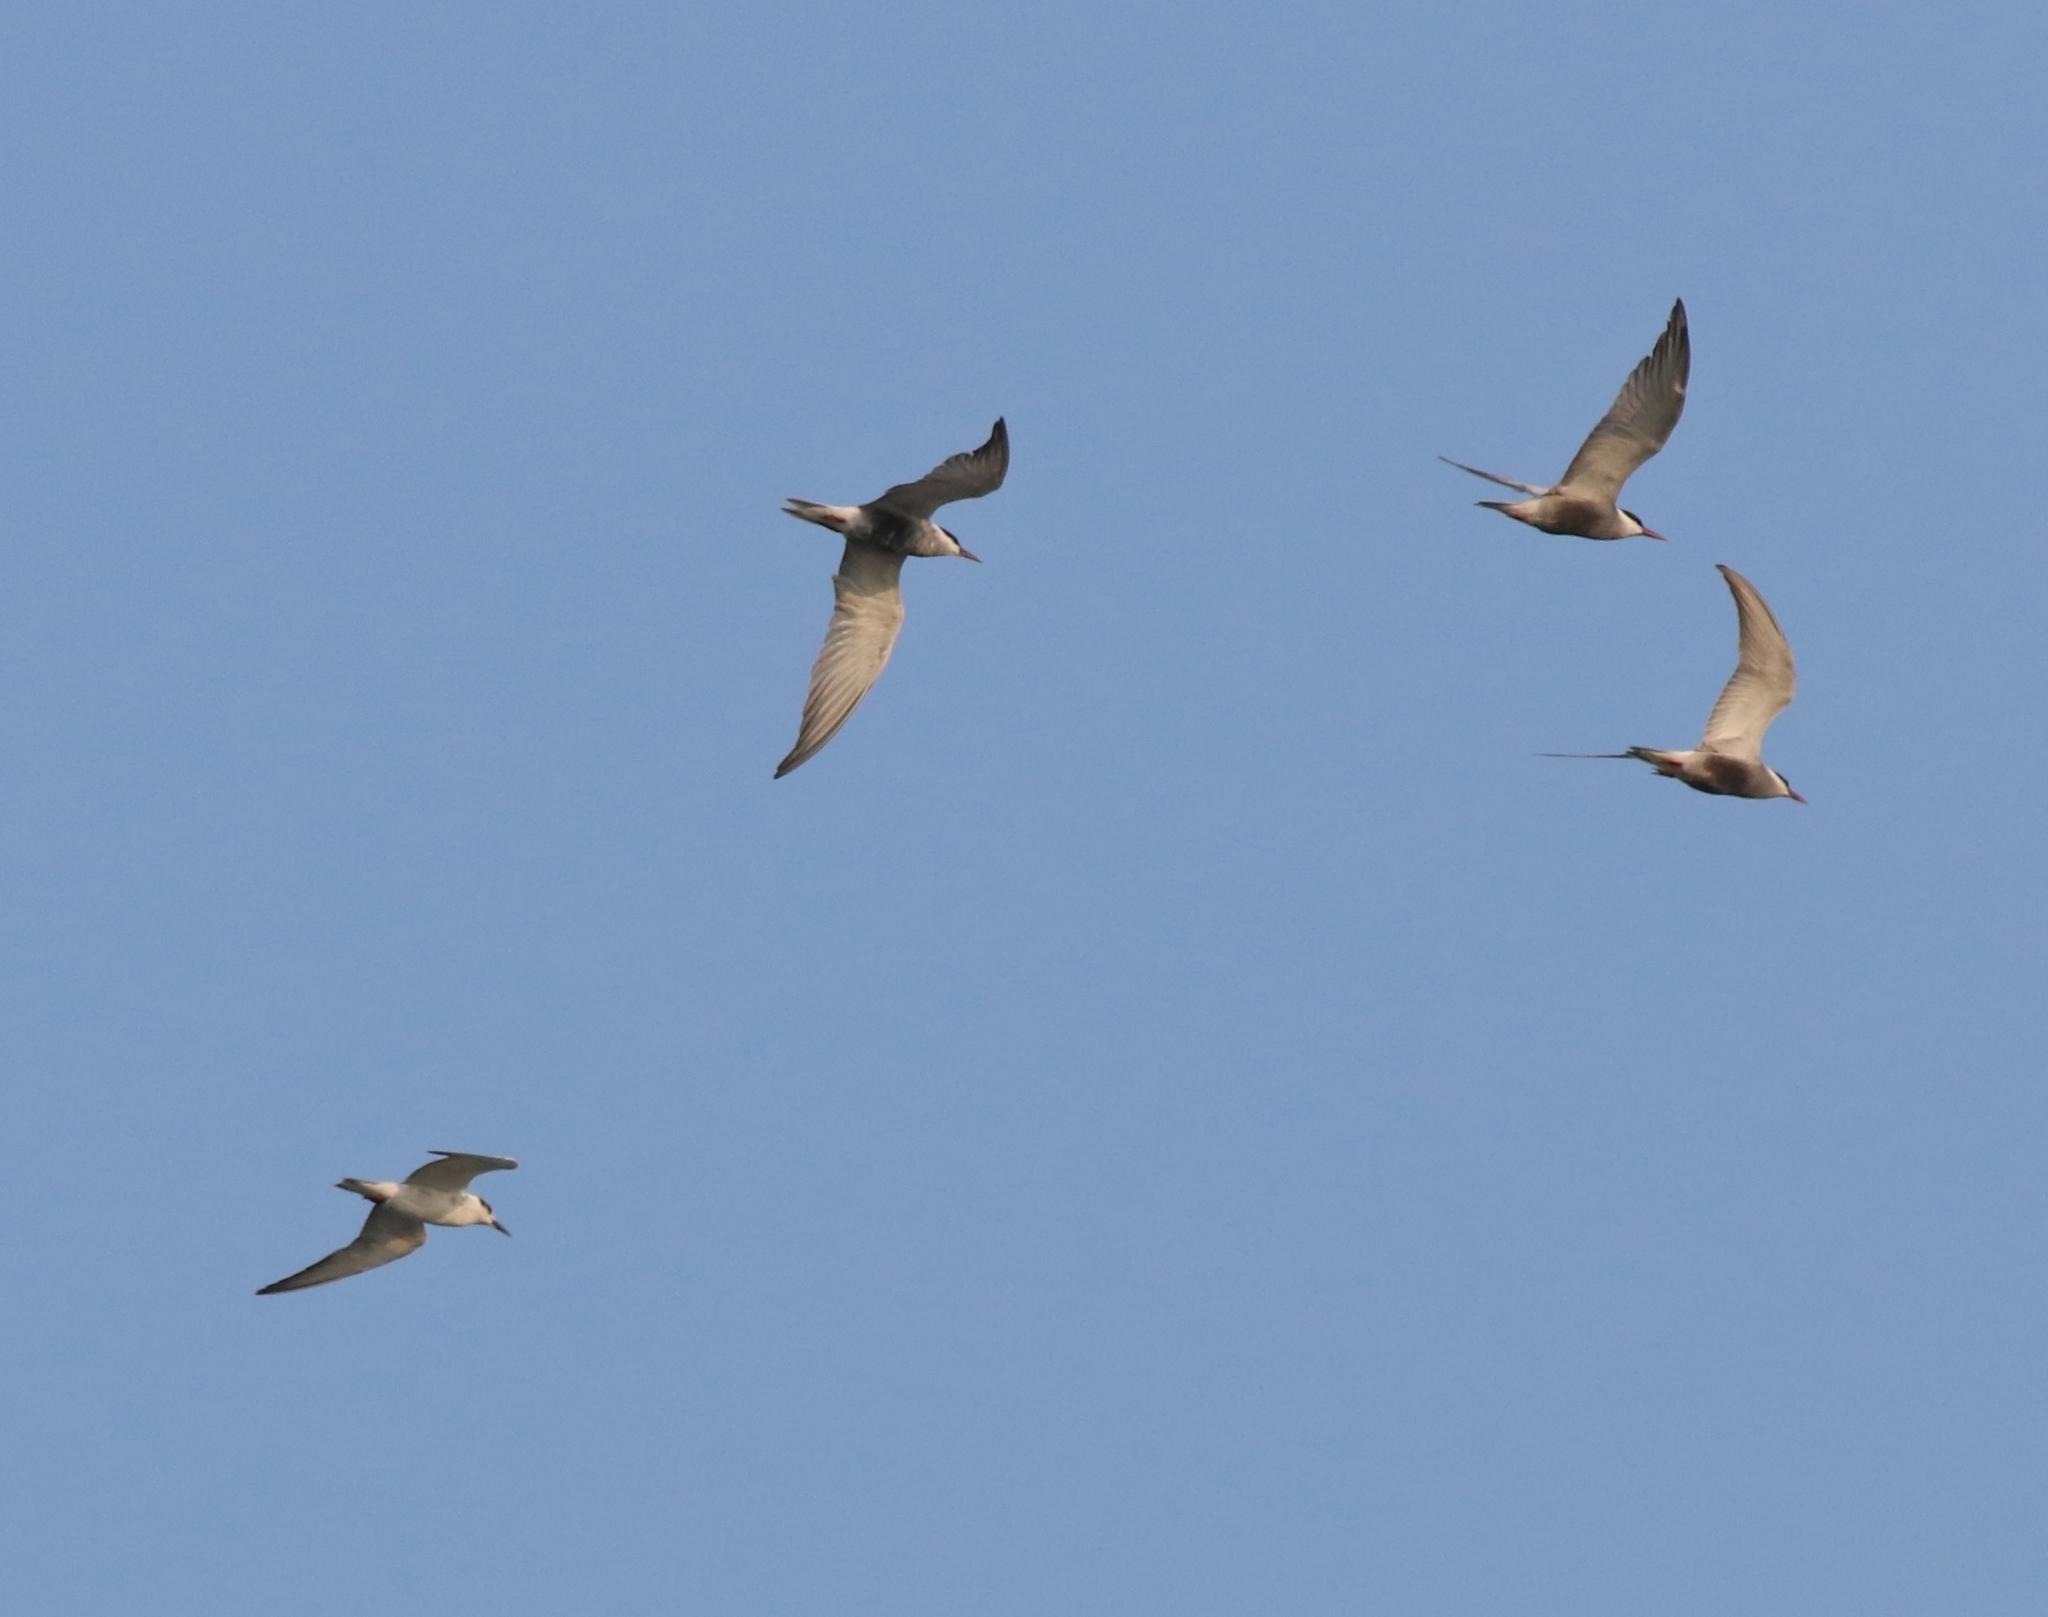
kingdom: Animalia
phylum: Chordata
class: Aves
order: Charadriiformes
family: Laridae
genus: Chlidonias
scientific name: Chlidonias hybrida
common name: Whiskered tern
